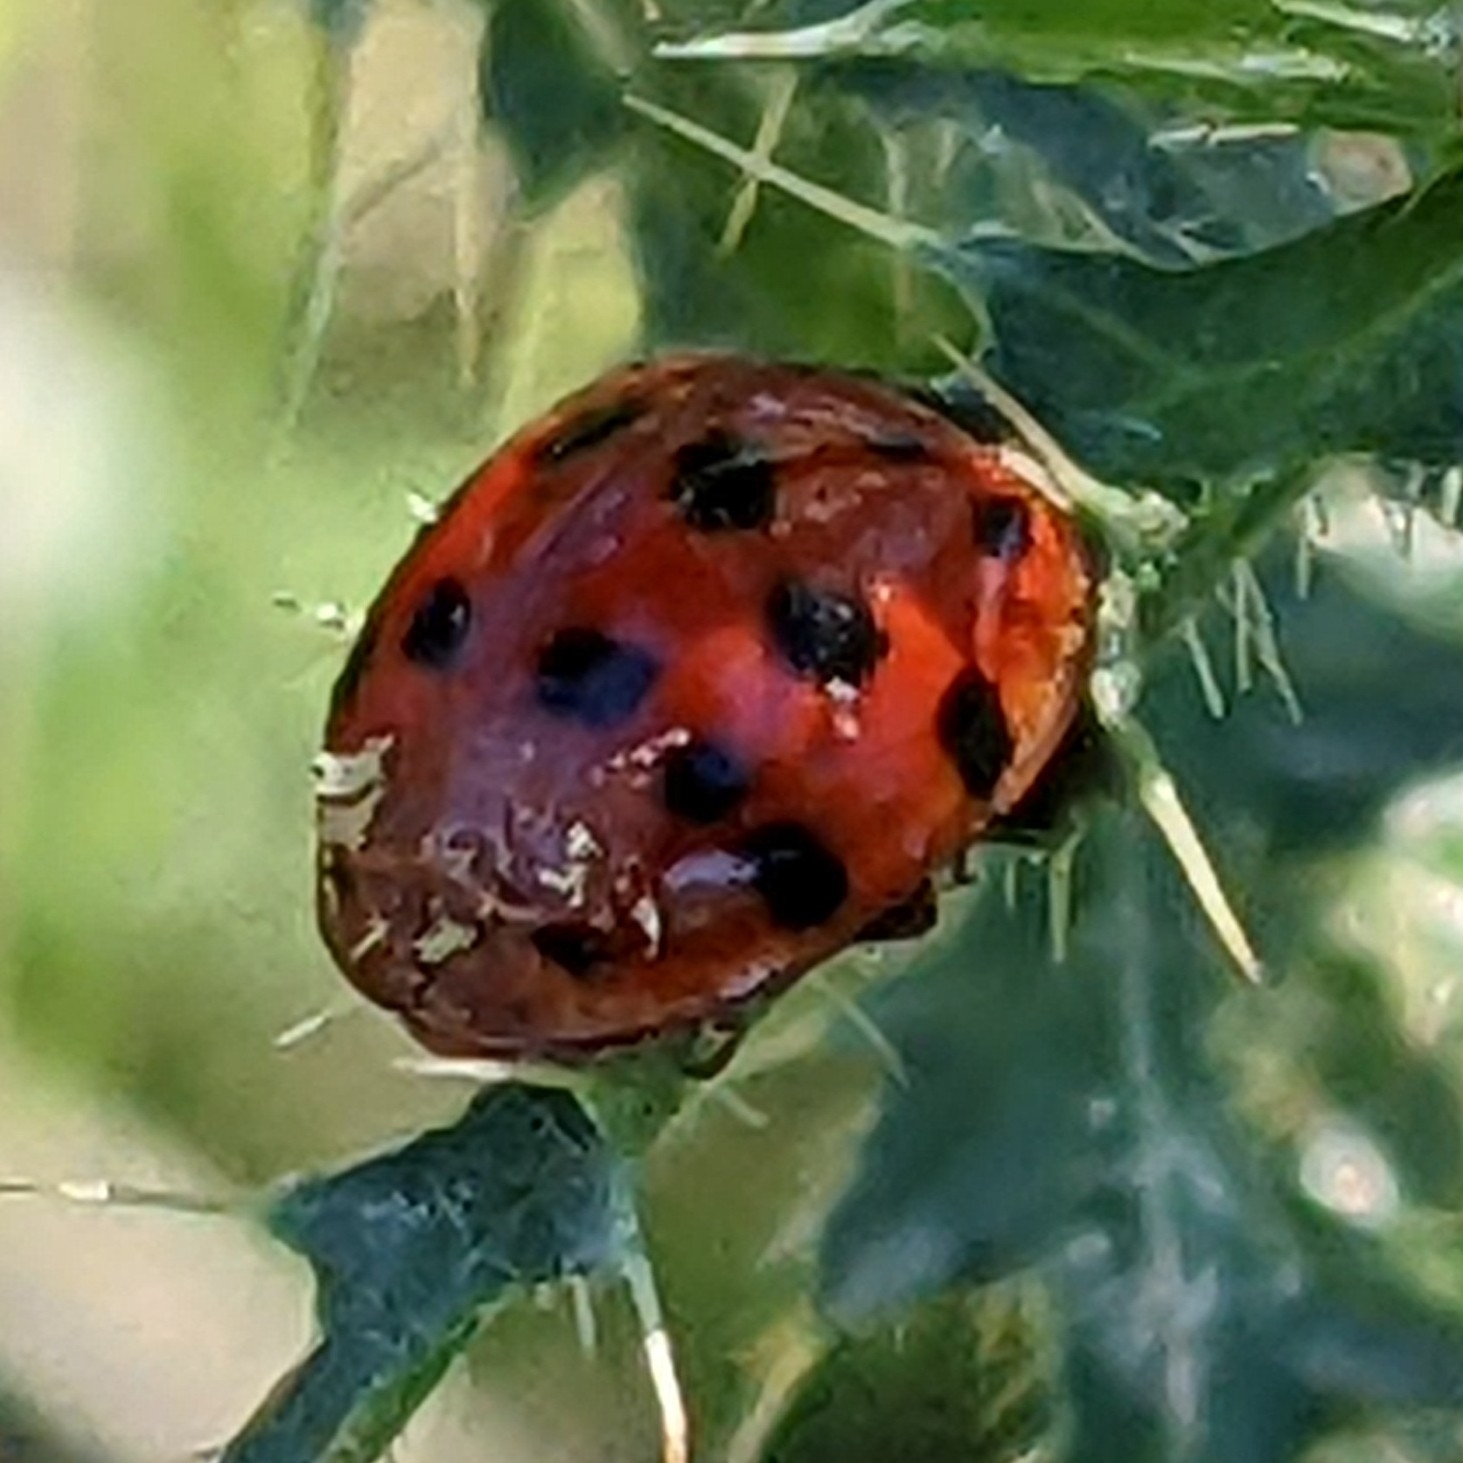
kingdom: Animalia
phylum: Arthropoda
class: Insecta
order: Coleoptera
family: Coccinellidae
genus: Harmonia
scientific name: Harmonia axyridis
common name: Harlequin ladybird
